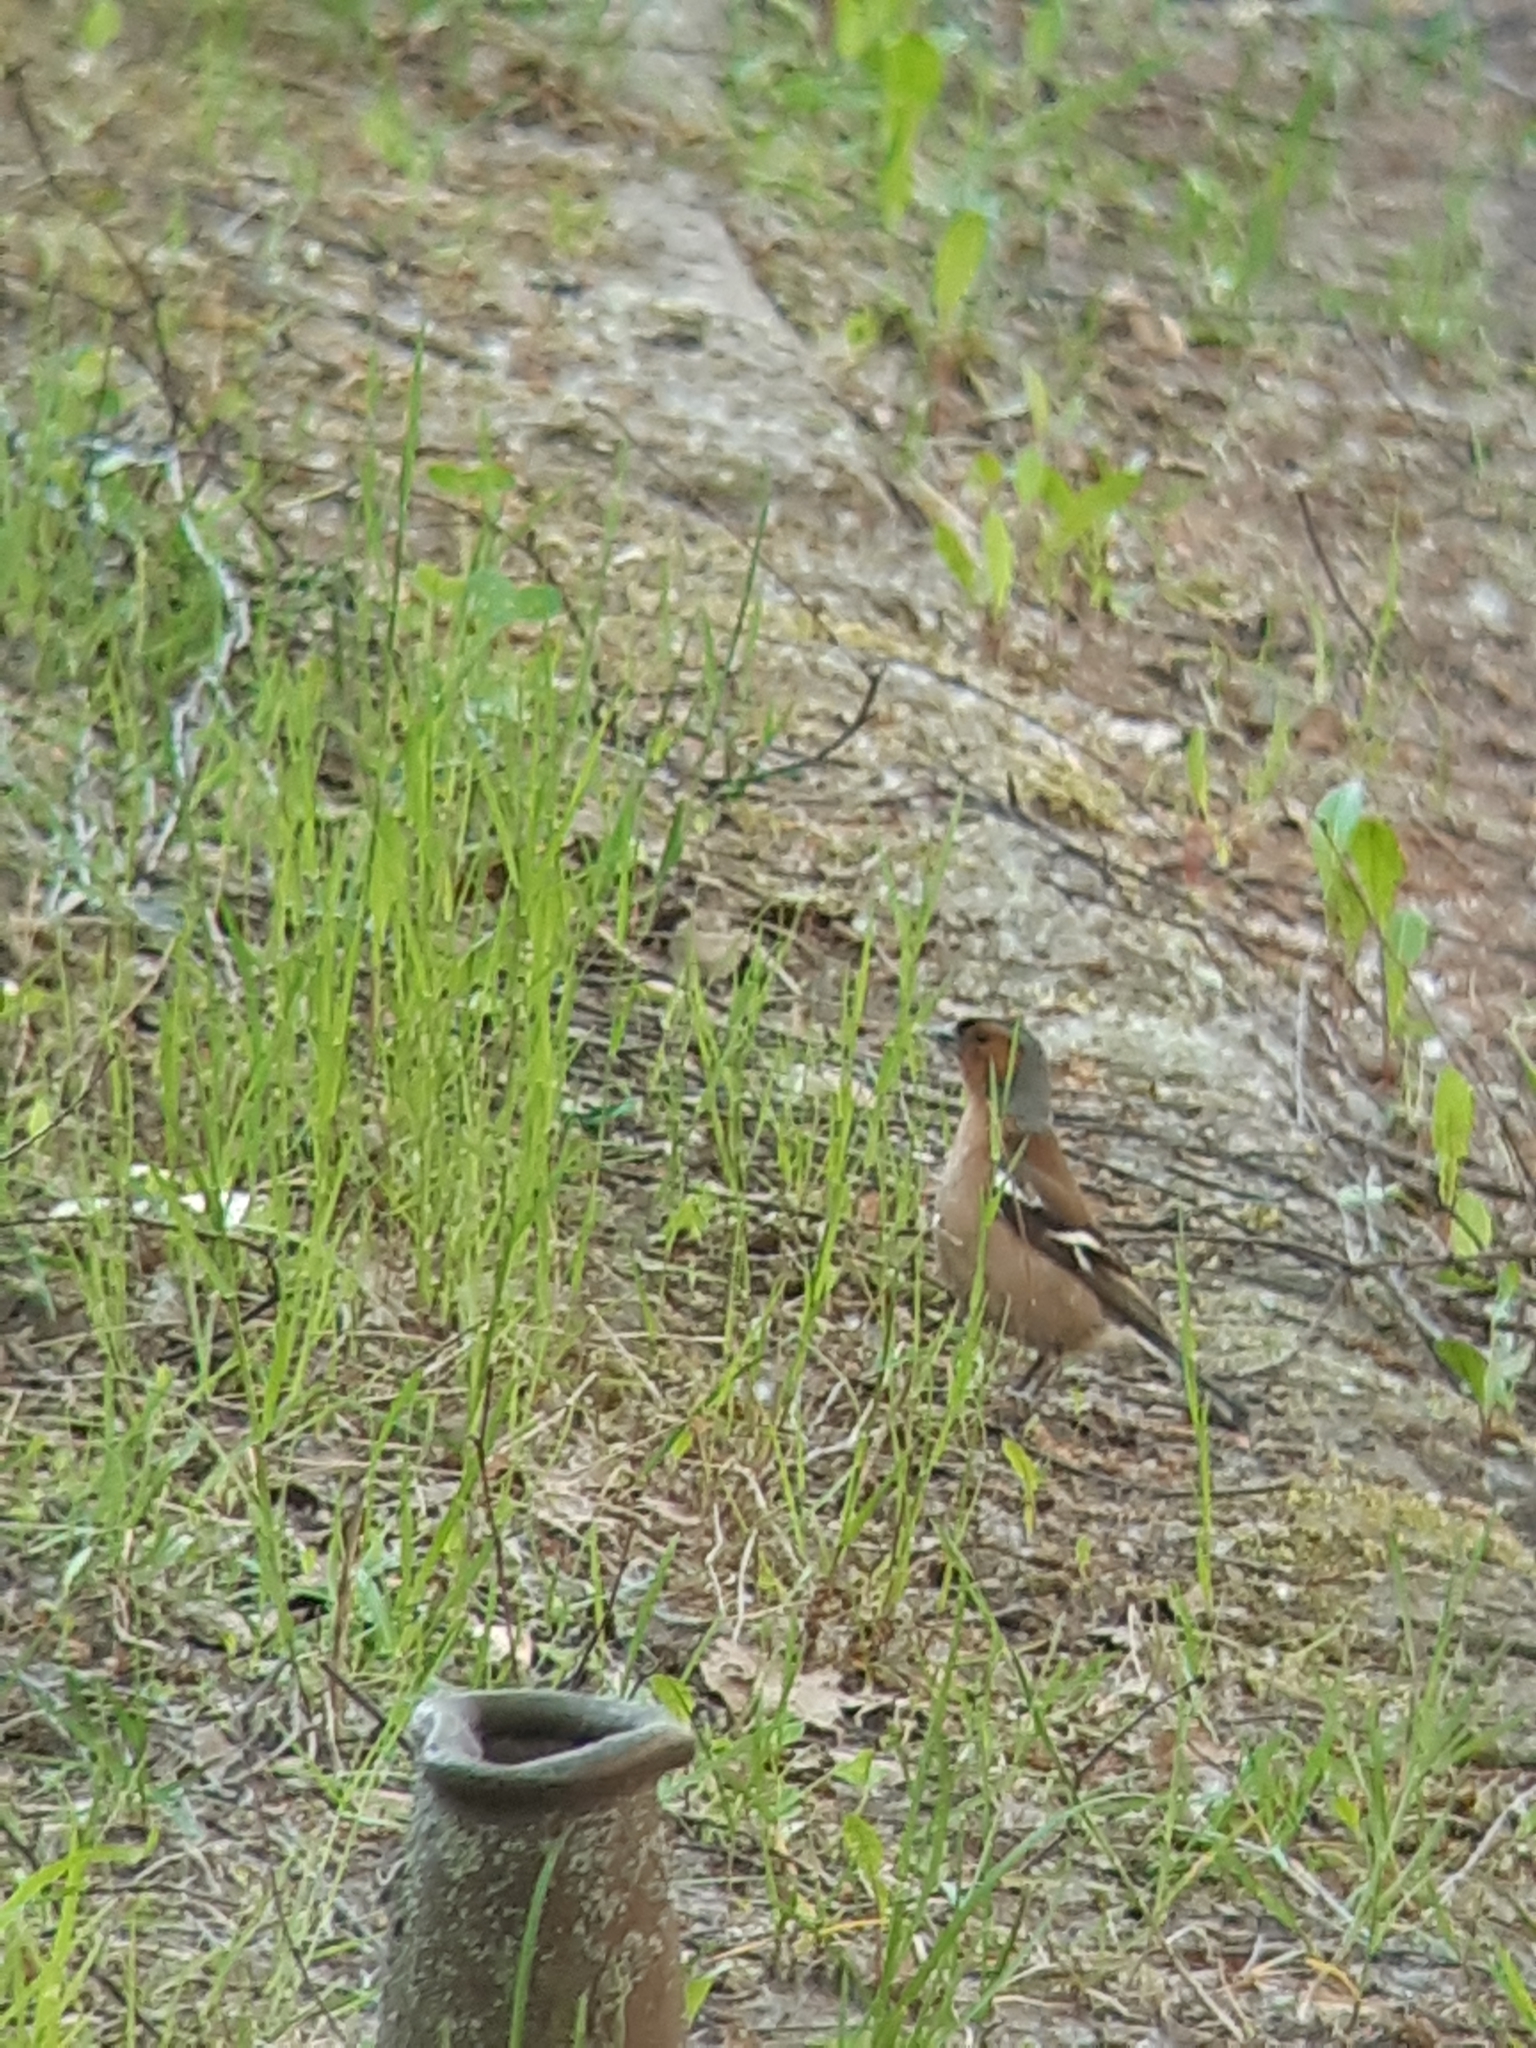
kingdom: Animalia
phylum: Chordata
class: Aves
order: Passeriformes
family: Fringillidae
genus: Fringilla
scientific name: Fringilla coelebs
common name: Common chaffinch
